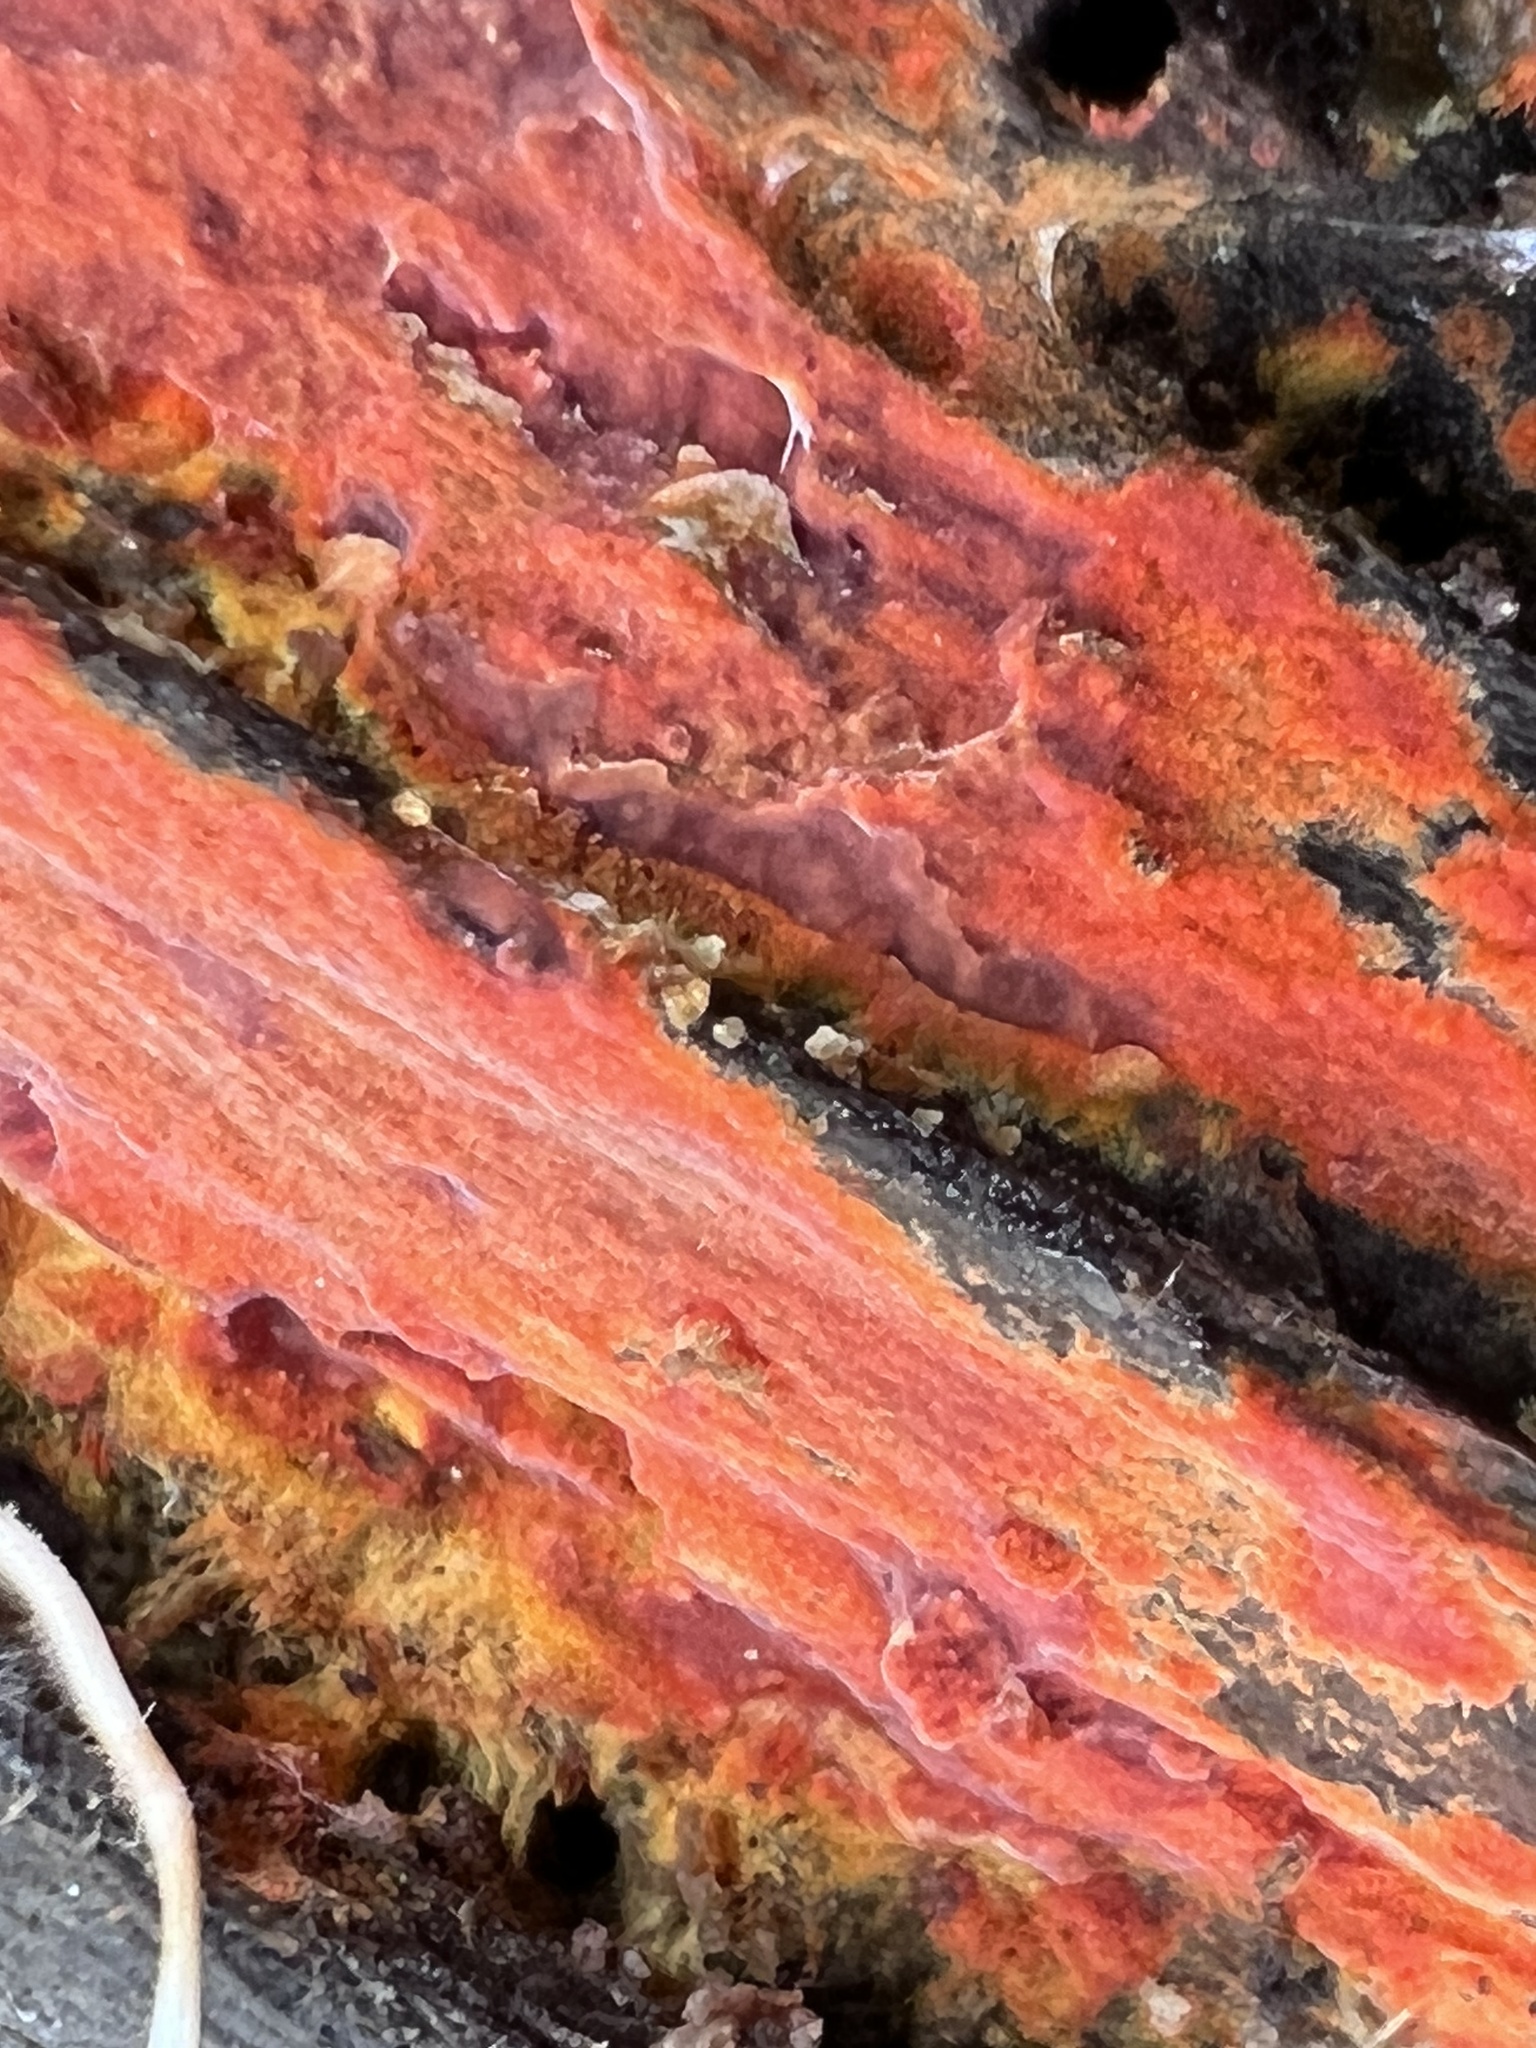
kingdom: Fungi
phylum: Basidiomycota
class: Agaricomycetes
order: Polyporales
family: Meruliaceae
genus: Phlebia
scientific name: Phlebia coccineofulva
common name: Scarlet waxcrust
